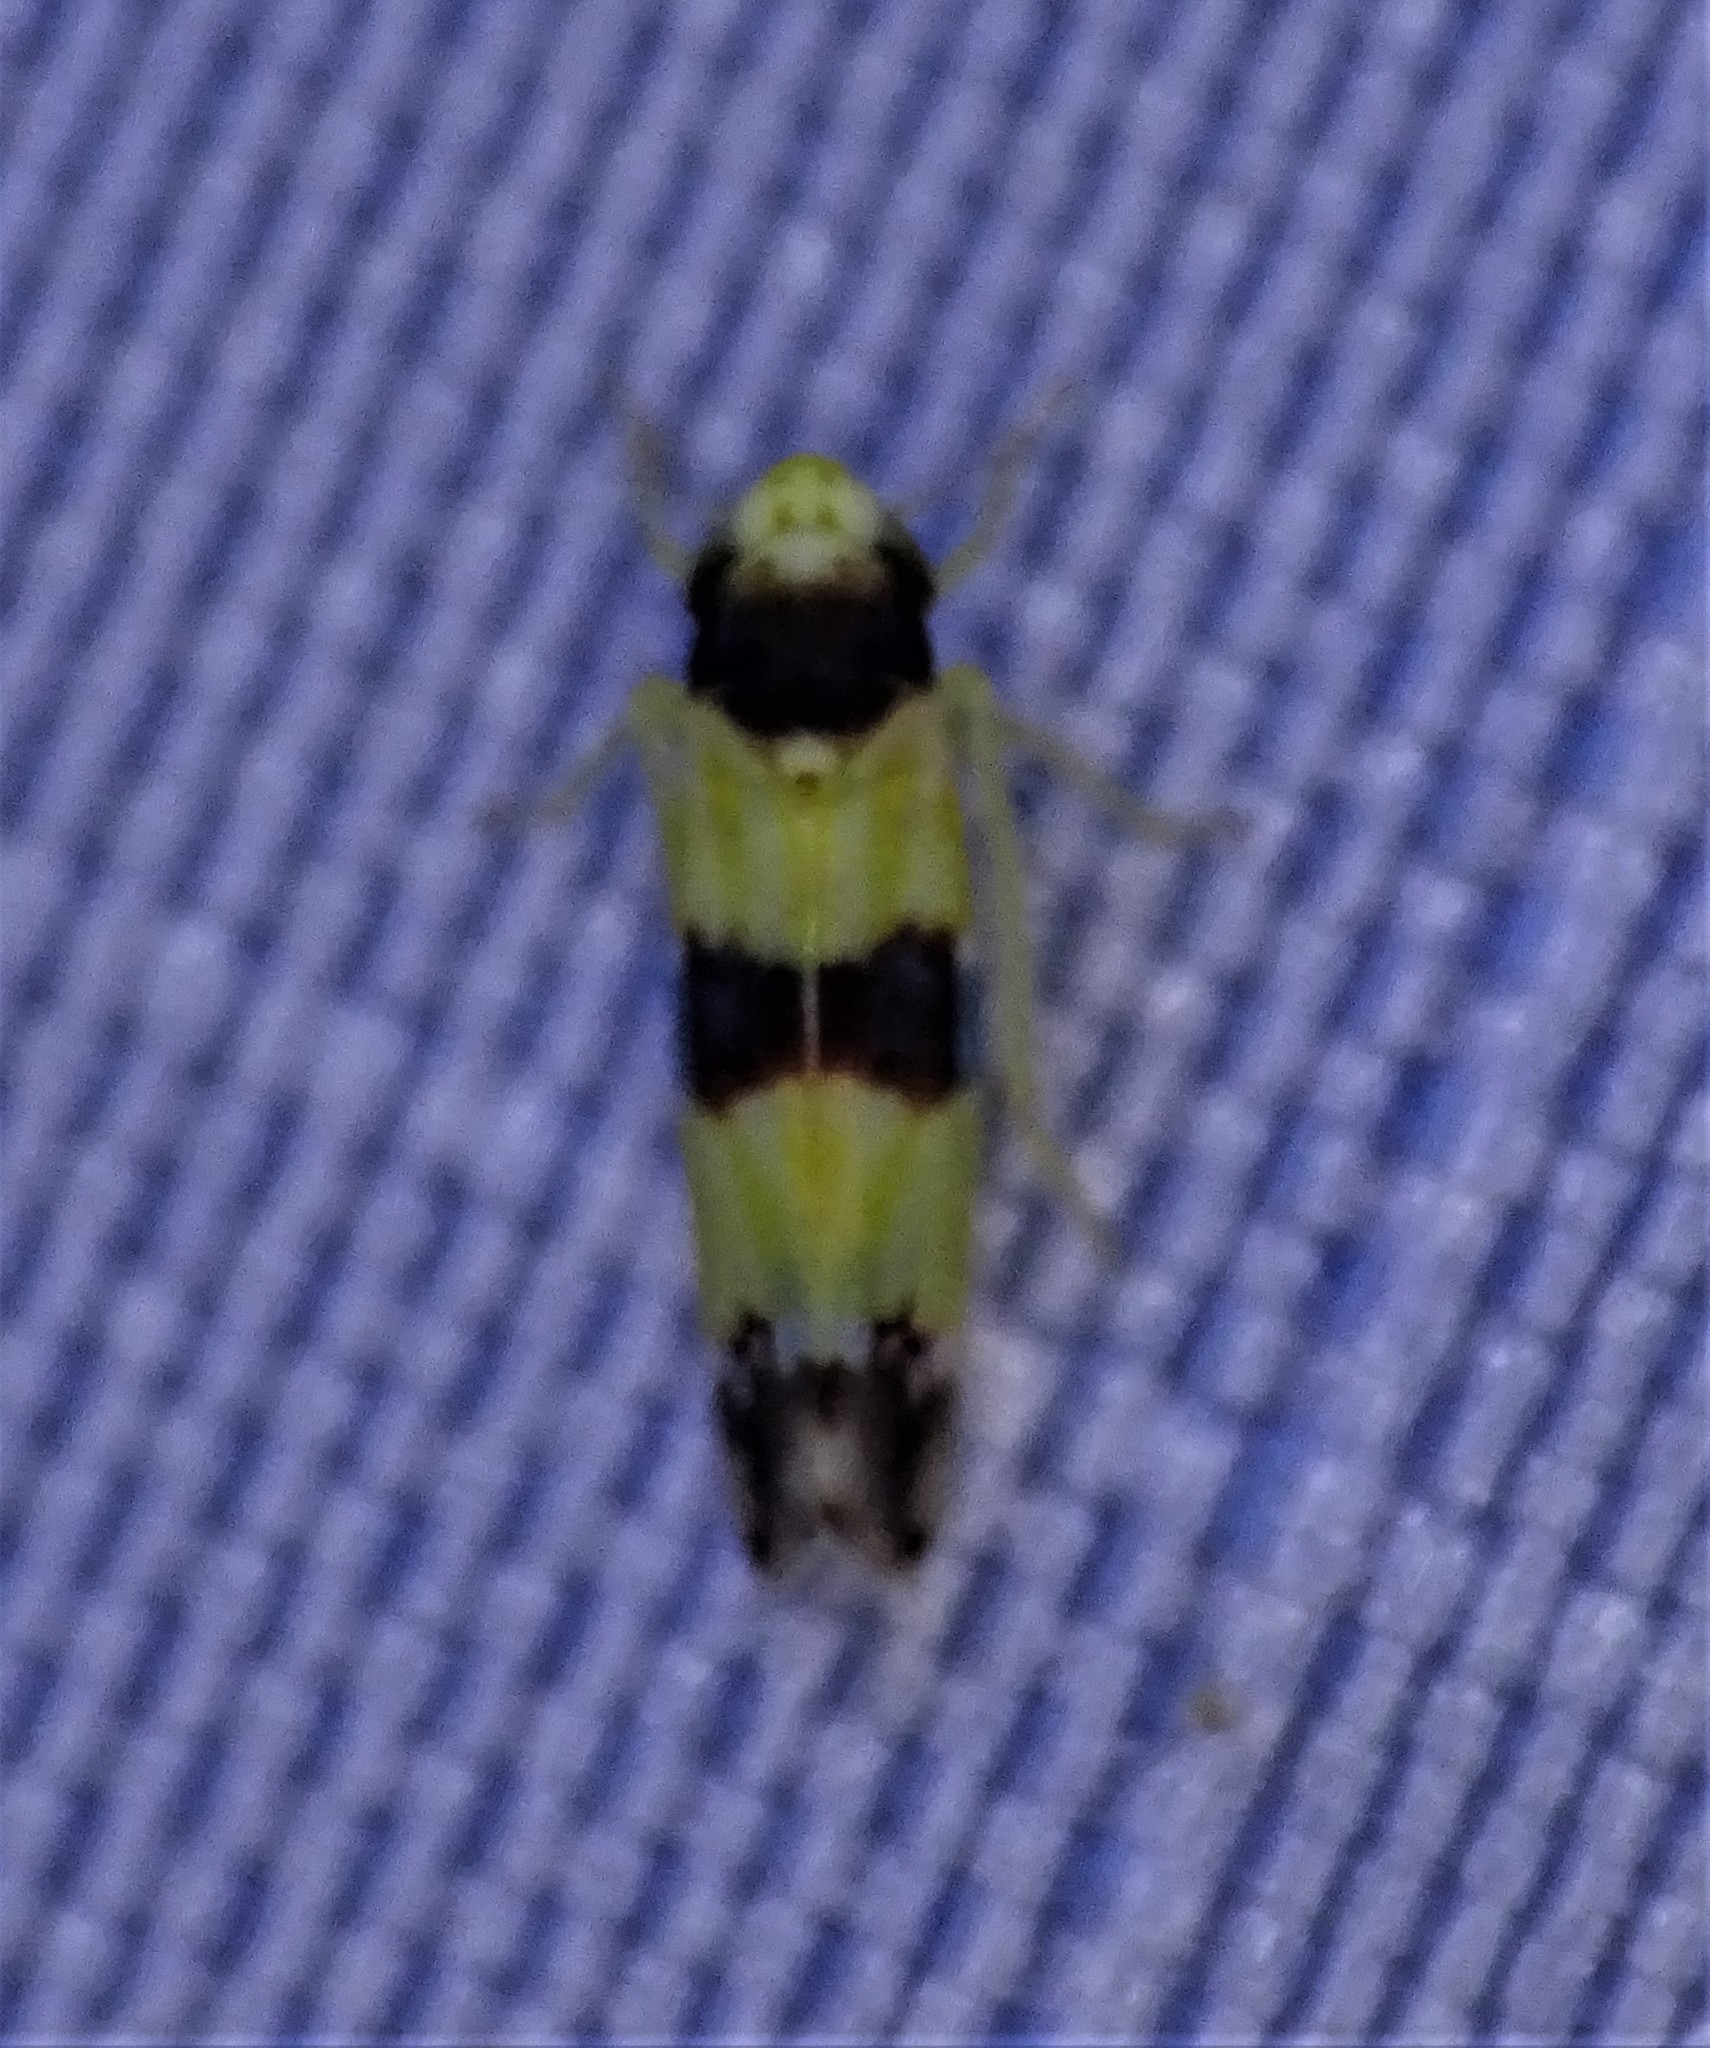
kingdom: Animalia
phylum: Arthropoda
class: Insecta
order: Hemiptera
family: Cicadellidae
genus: Erythroneura
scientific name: Erythroneura tricincta
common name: The threebanded grape leafhopper
